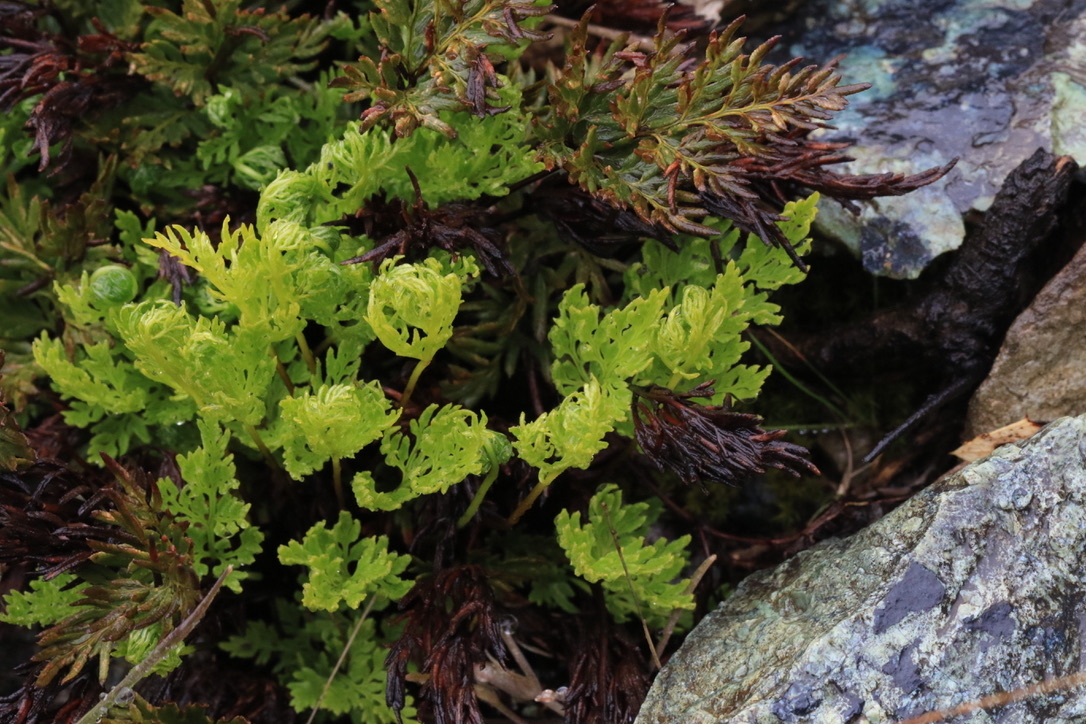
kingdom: Plantae
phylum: Tracheophyta
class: Polypodiopsida
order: Polypodiales
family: Pteridaceae
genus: Aspidotis
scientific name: Aspidotis densa
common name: Indian's dream
